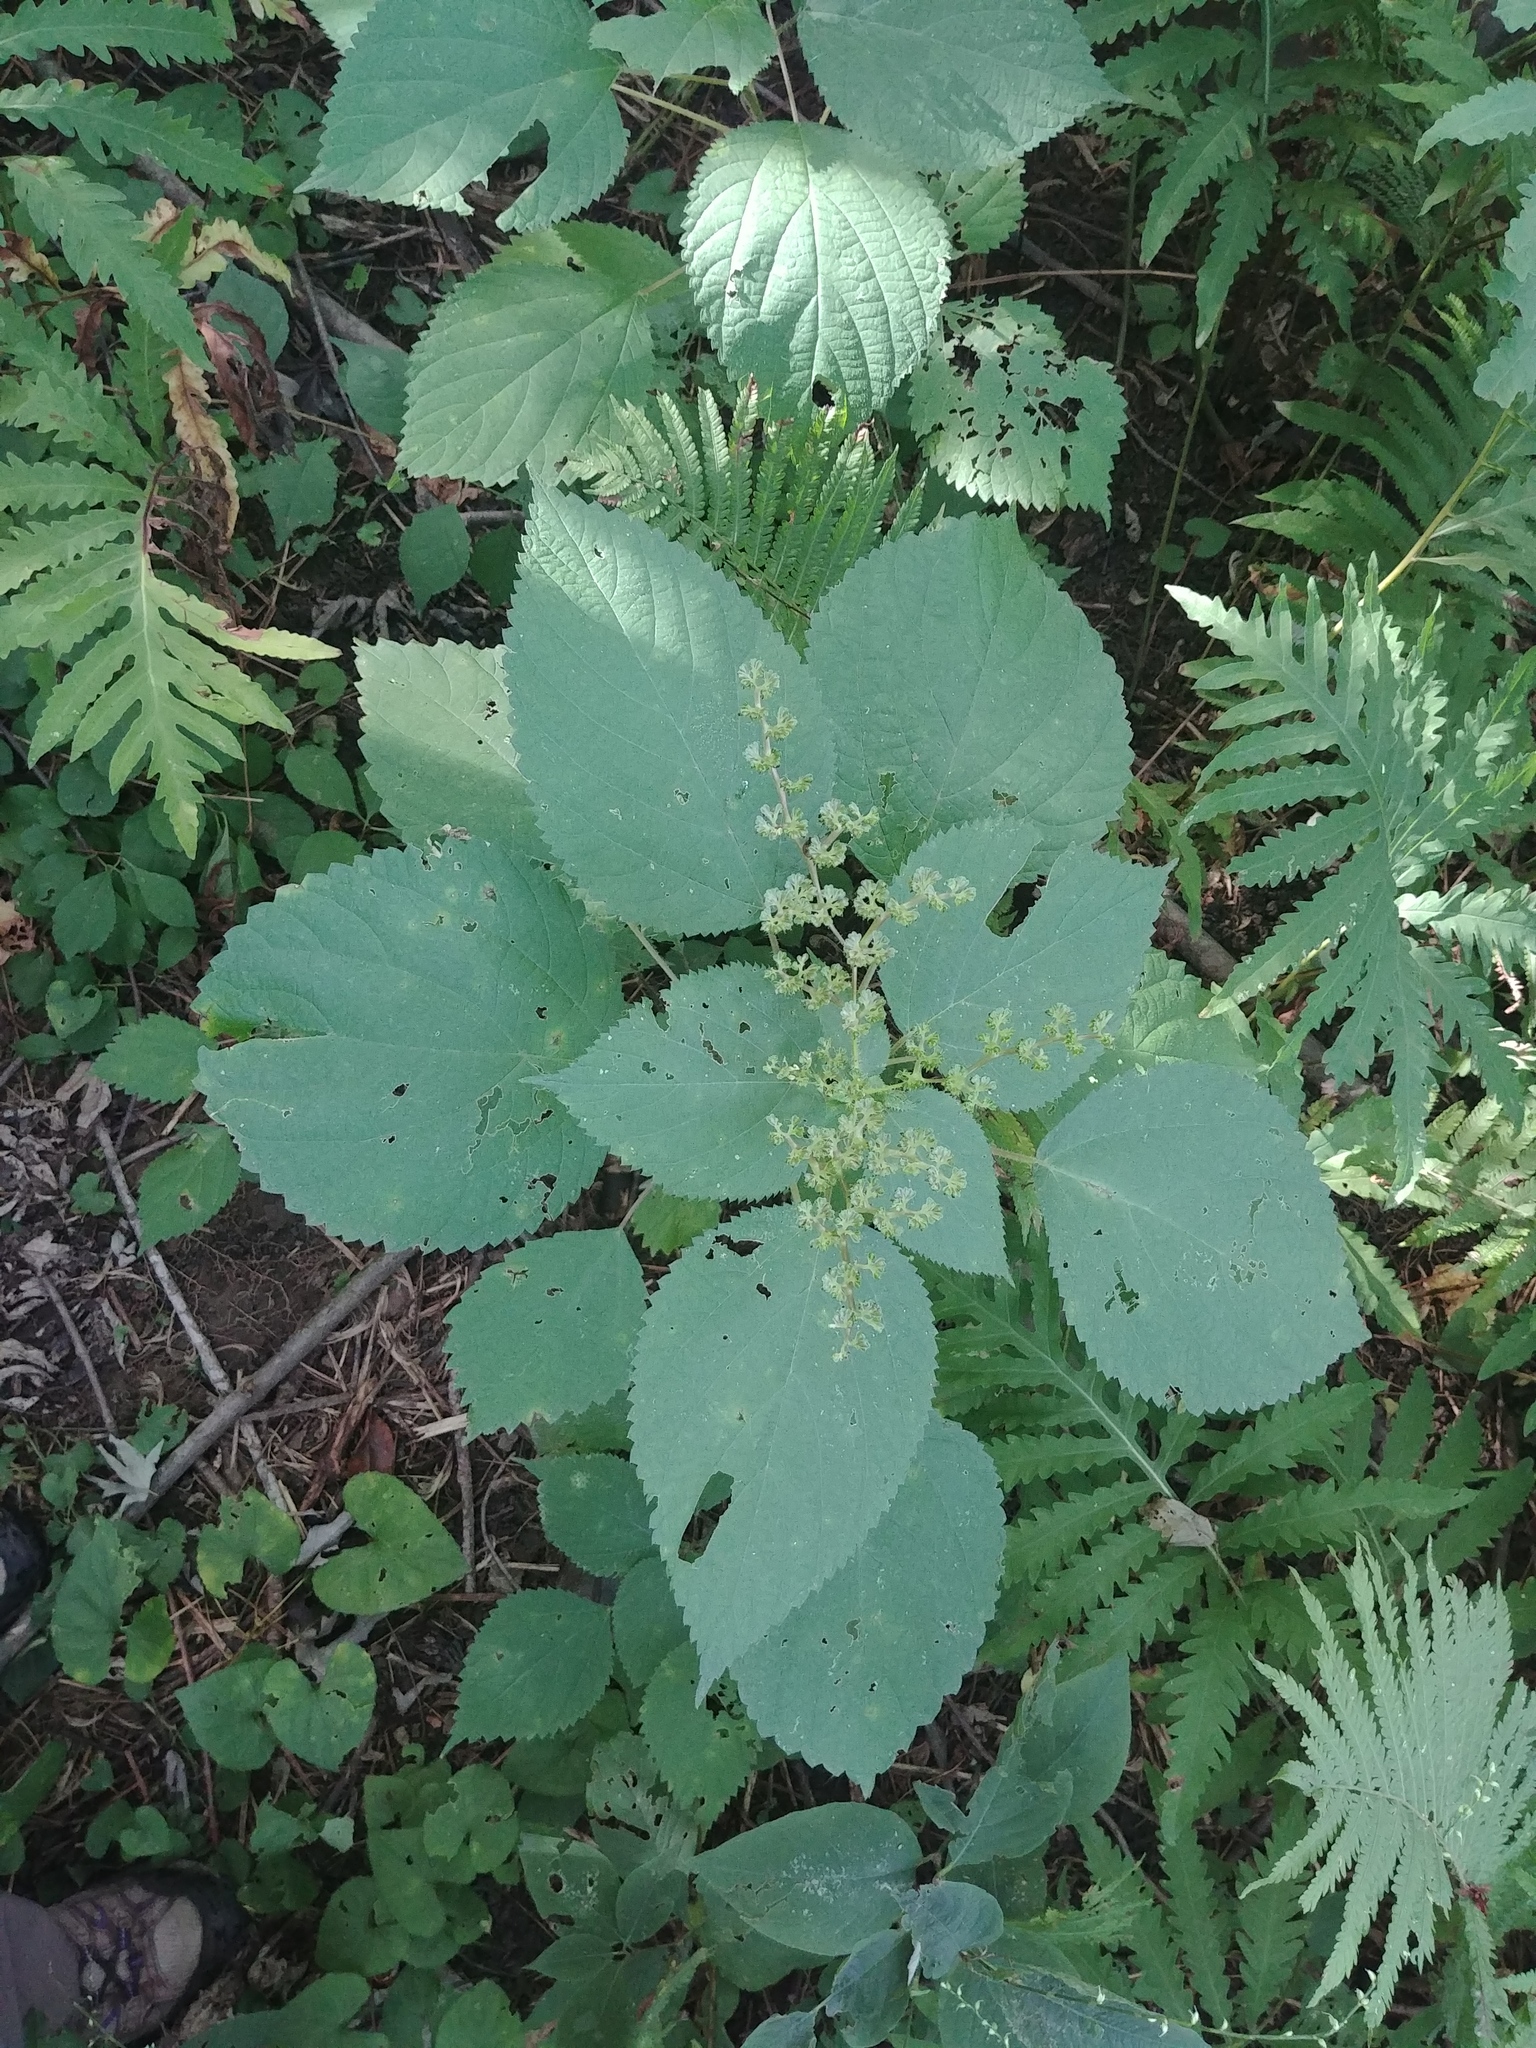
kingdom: Plantae
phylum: Tracheophyta
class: Magnoliopsida
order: Rosales
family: Urticaceae
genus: Laportea
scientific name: Laportea canadensis
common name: Canada nettle
